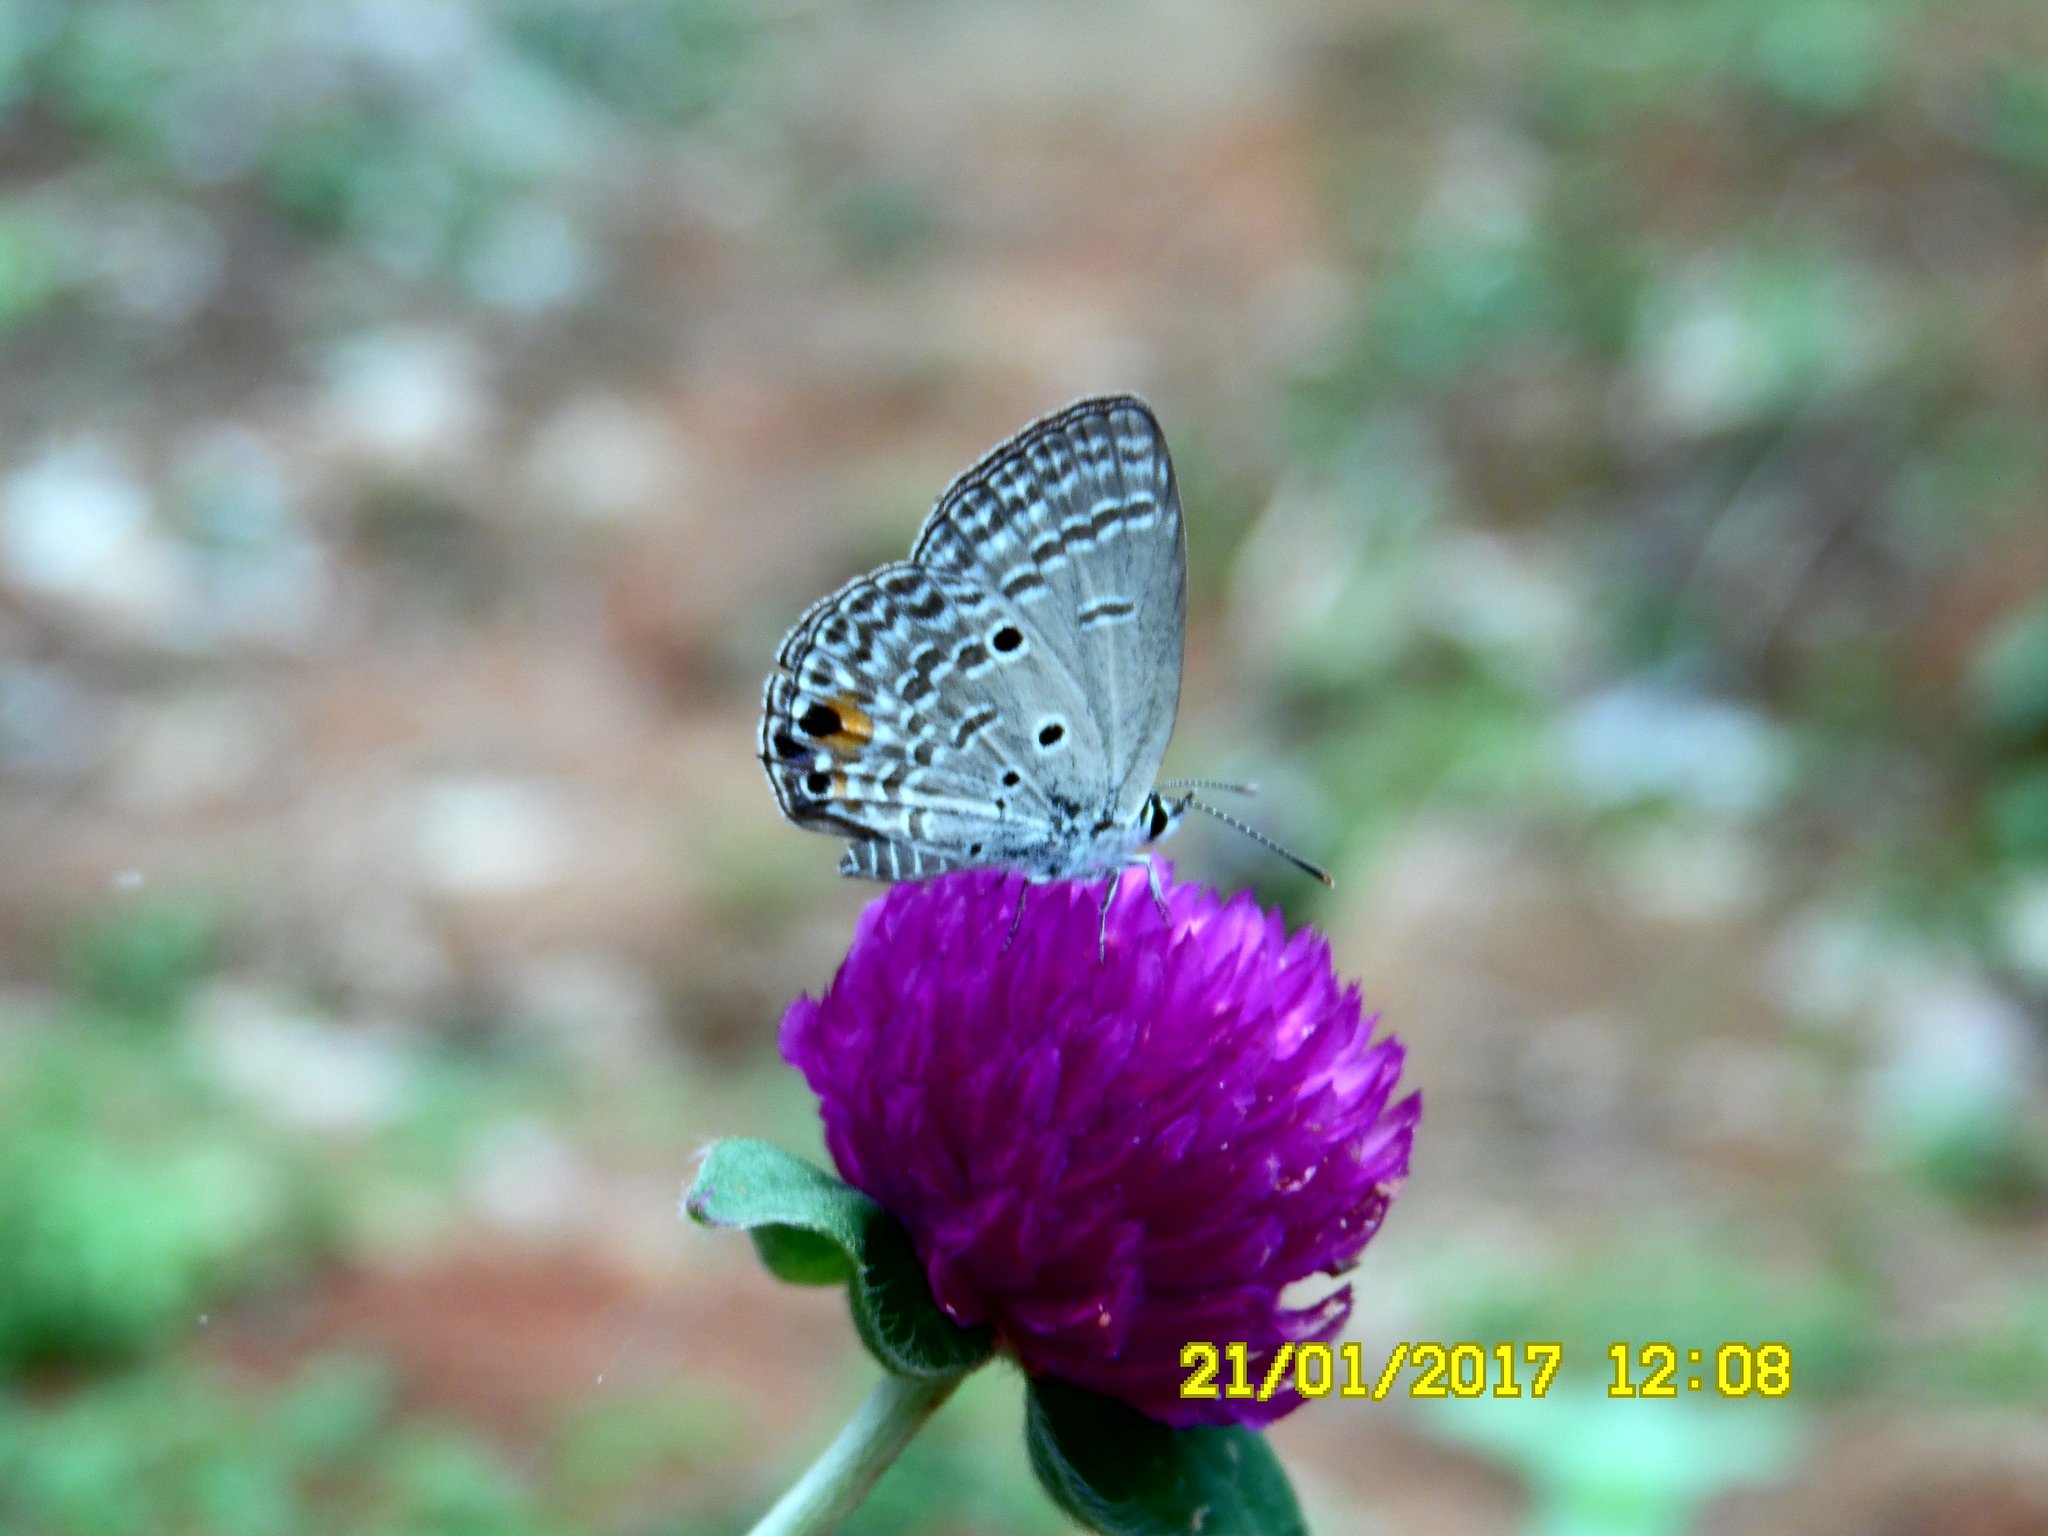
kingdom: Animalia
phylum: Arthropoda
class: Insecta
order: Lepidoptera
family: Lycaenidae
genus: Luthrodes
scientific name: Luthrodes pandava
